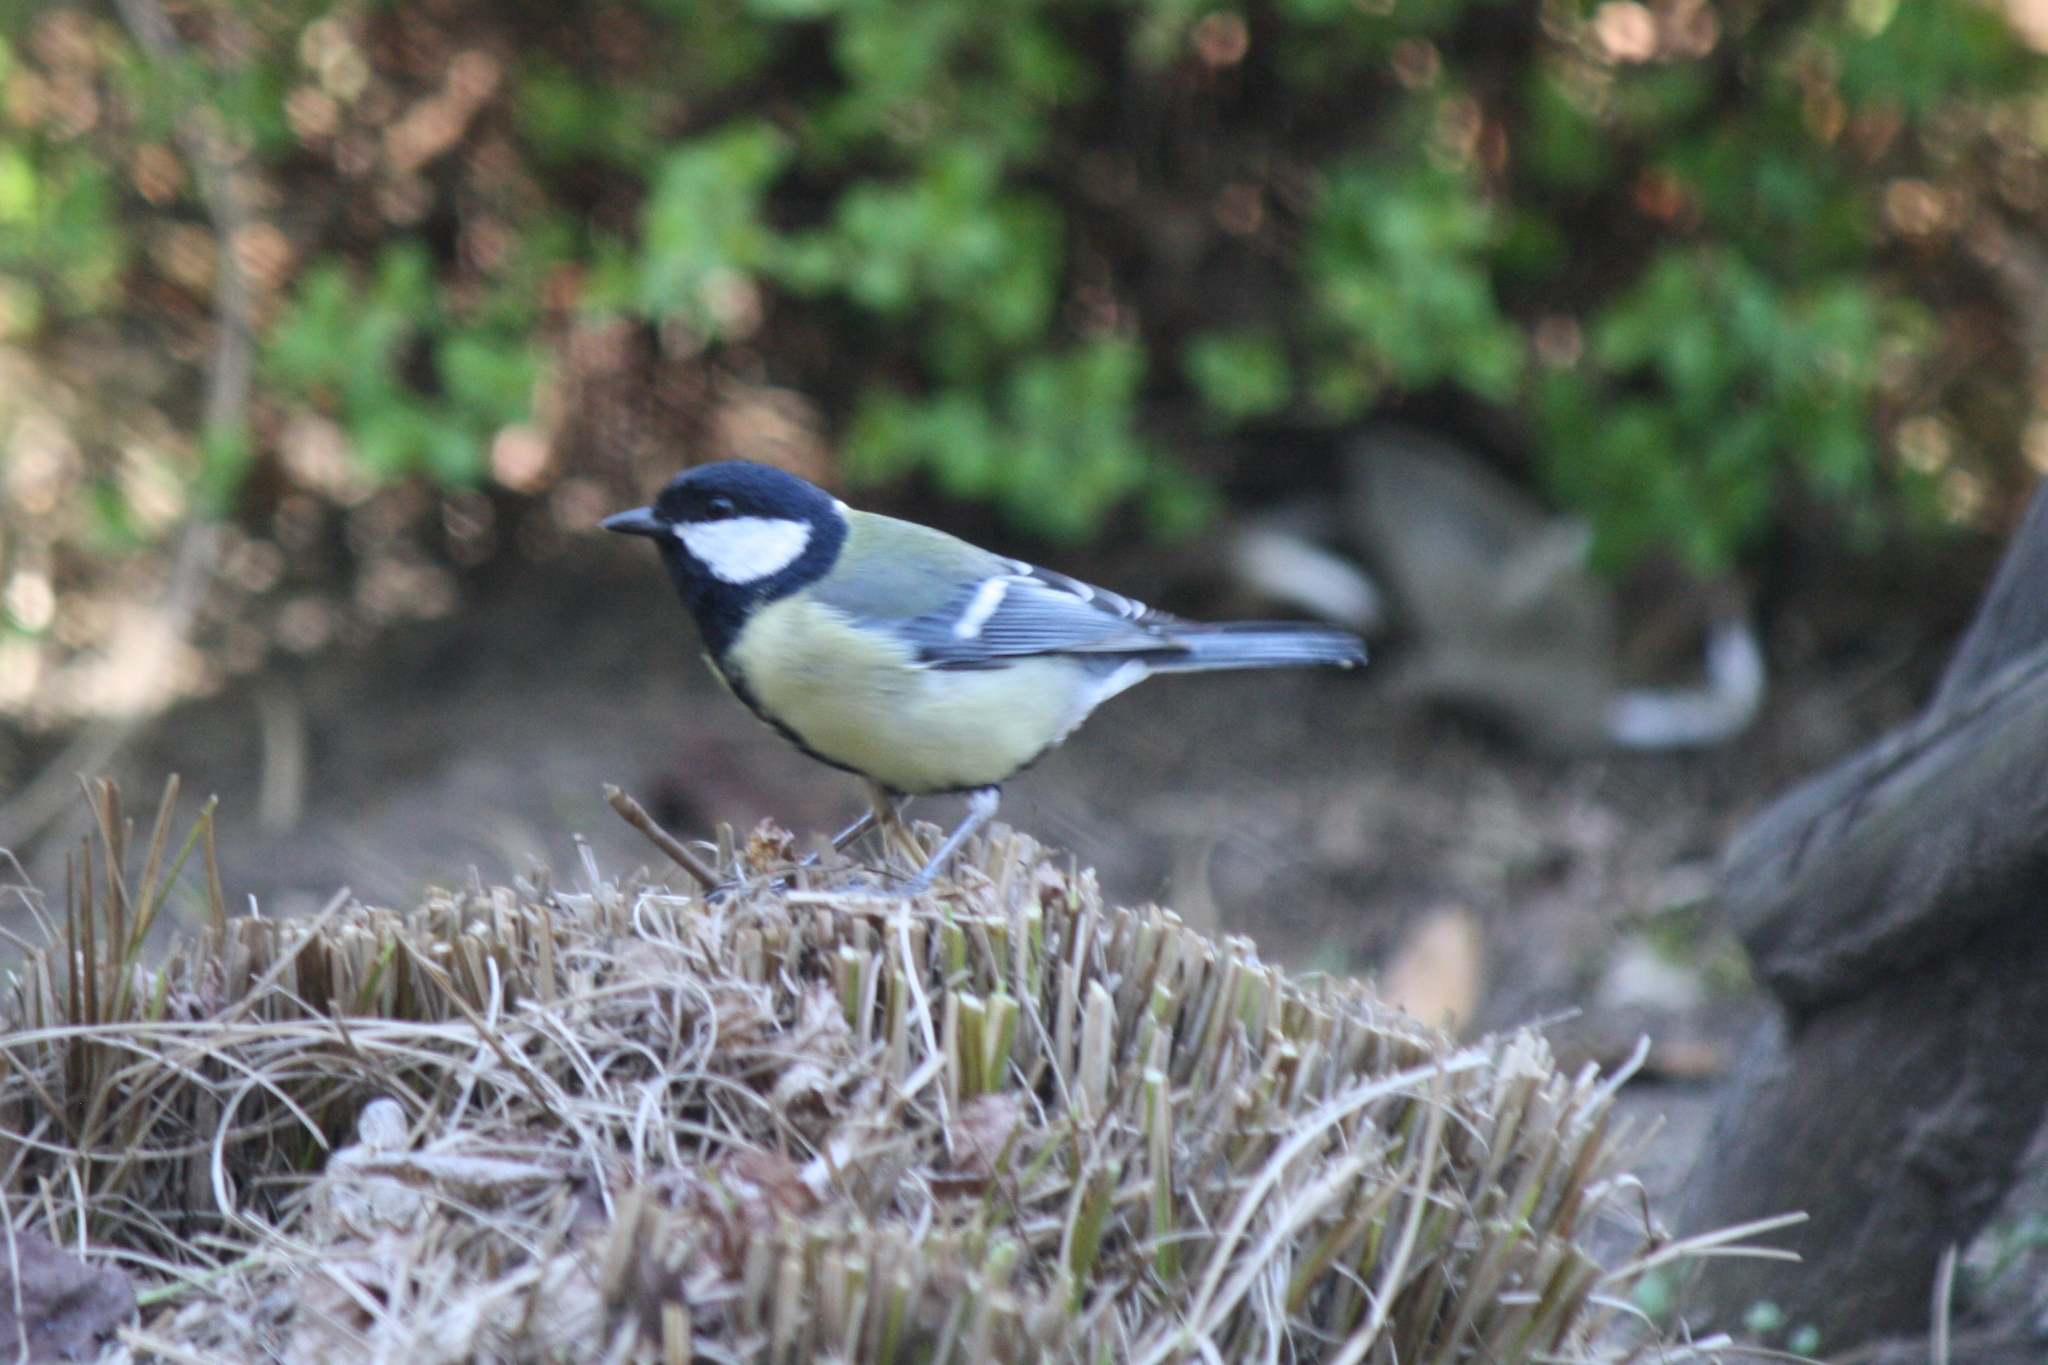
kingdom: Animalia
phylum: Chordata
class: Aves
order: Passeriformes
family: Paridae
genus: Parus
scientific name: Parus major
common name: Great tit
